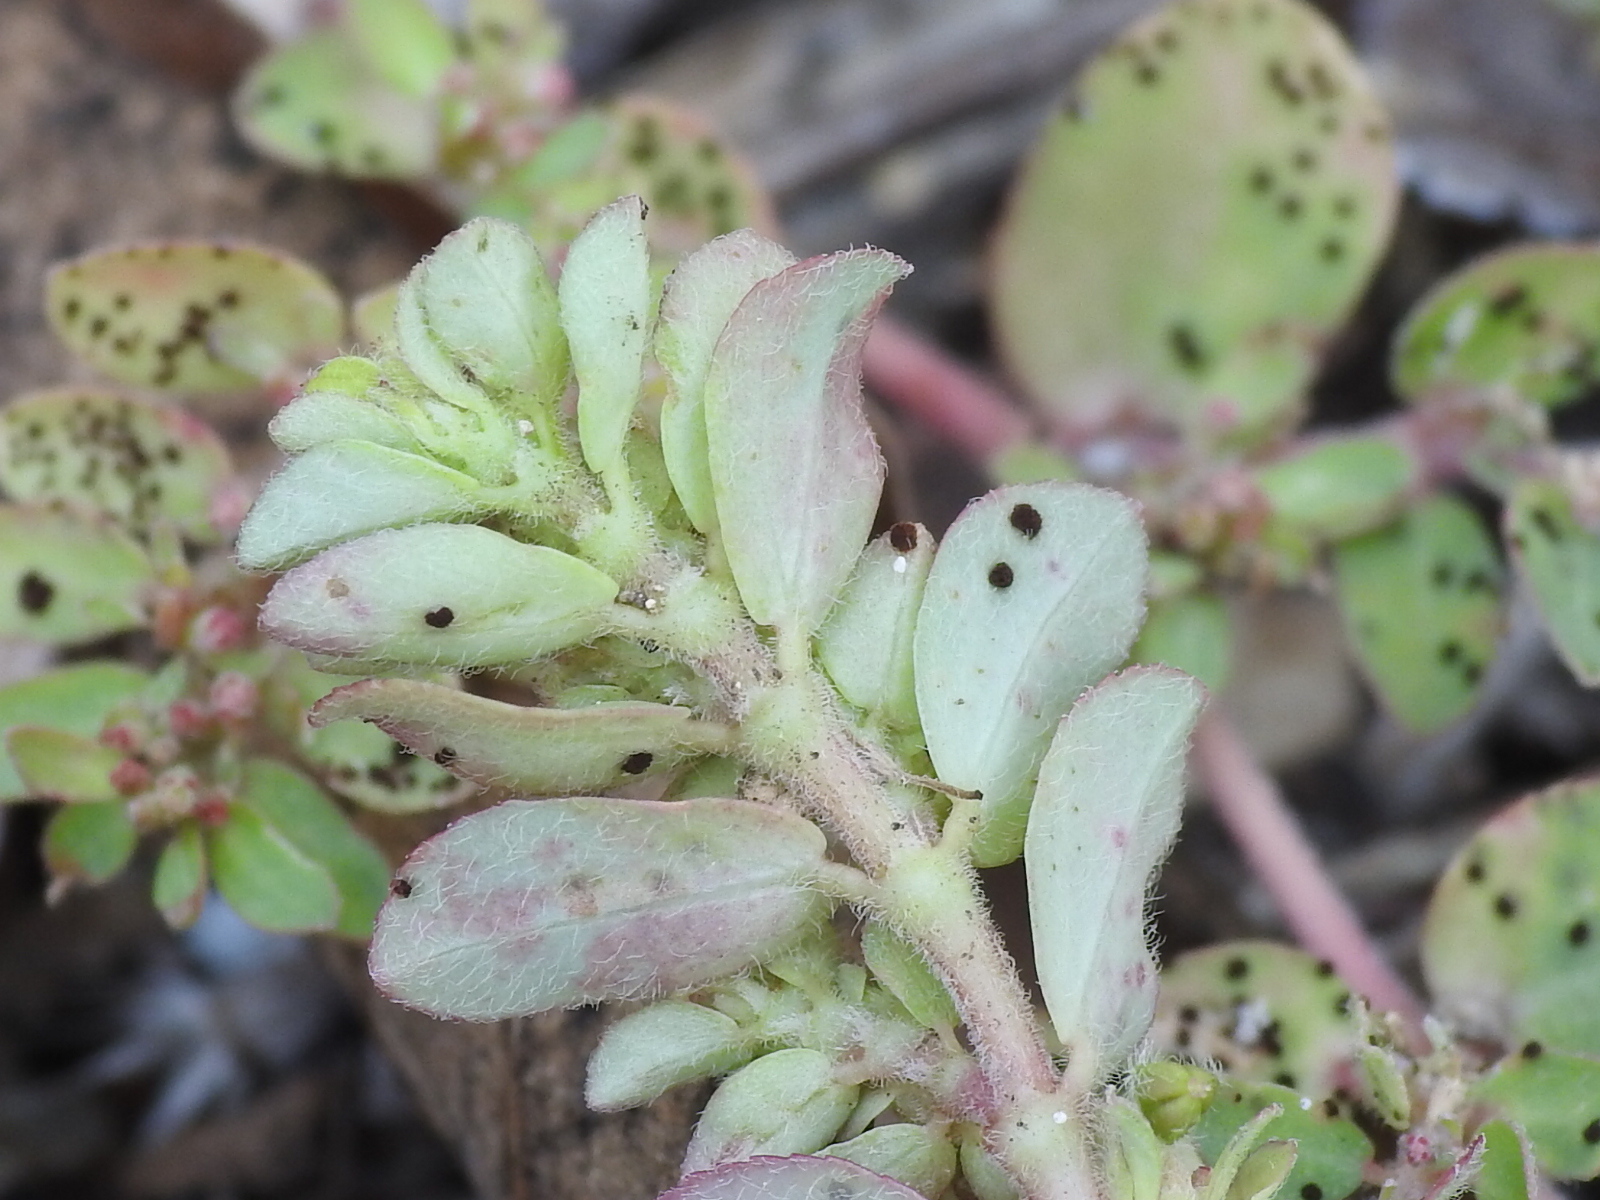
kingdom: Plantae
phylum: Tracheophyta
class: Magnoliopsida
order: Malpighiales
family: Euphorbiaceae
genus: Euphorbia
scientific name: Euphorbia prostrata
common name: Prostrate sandmat
